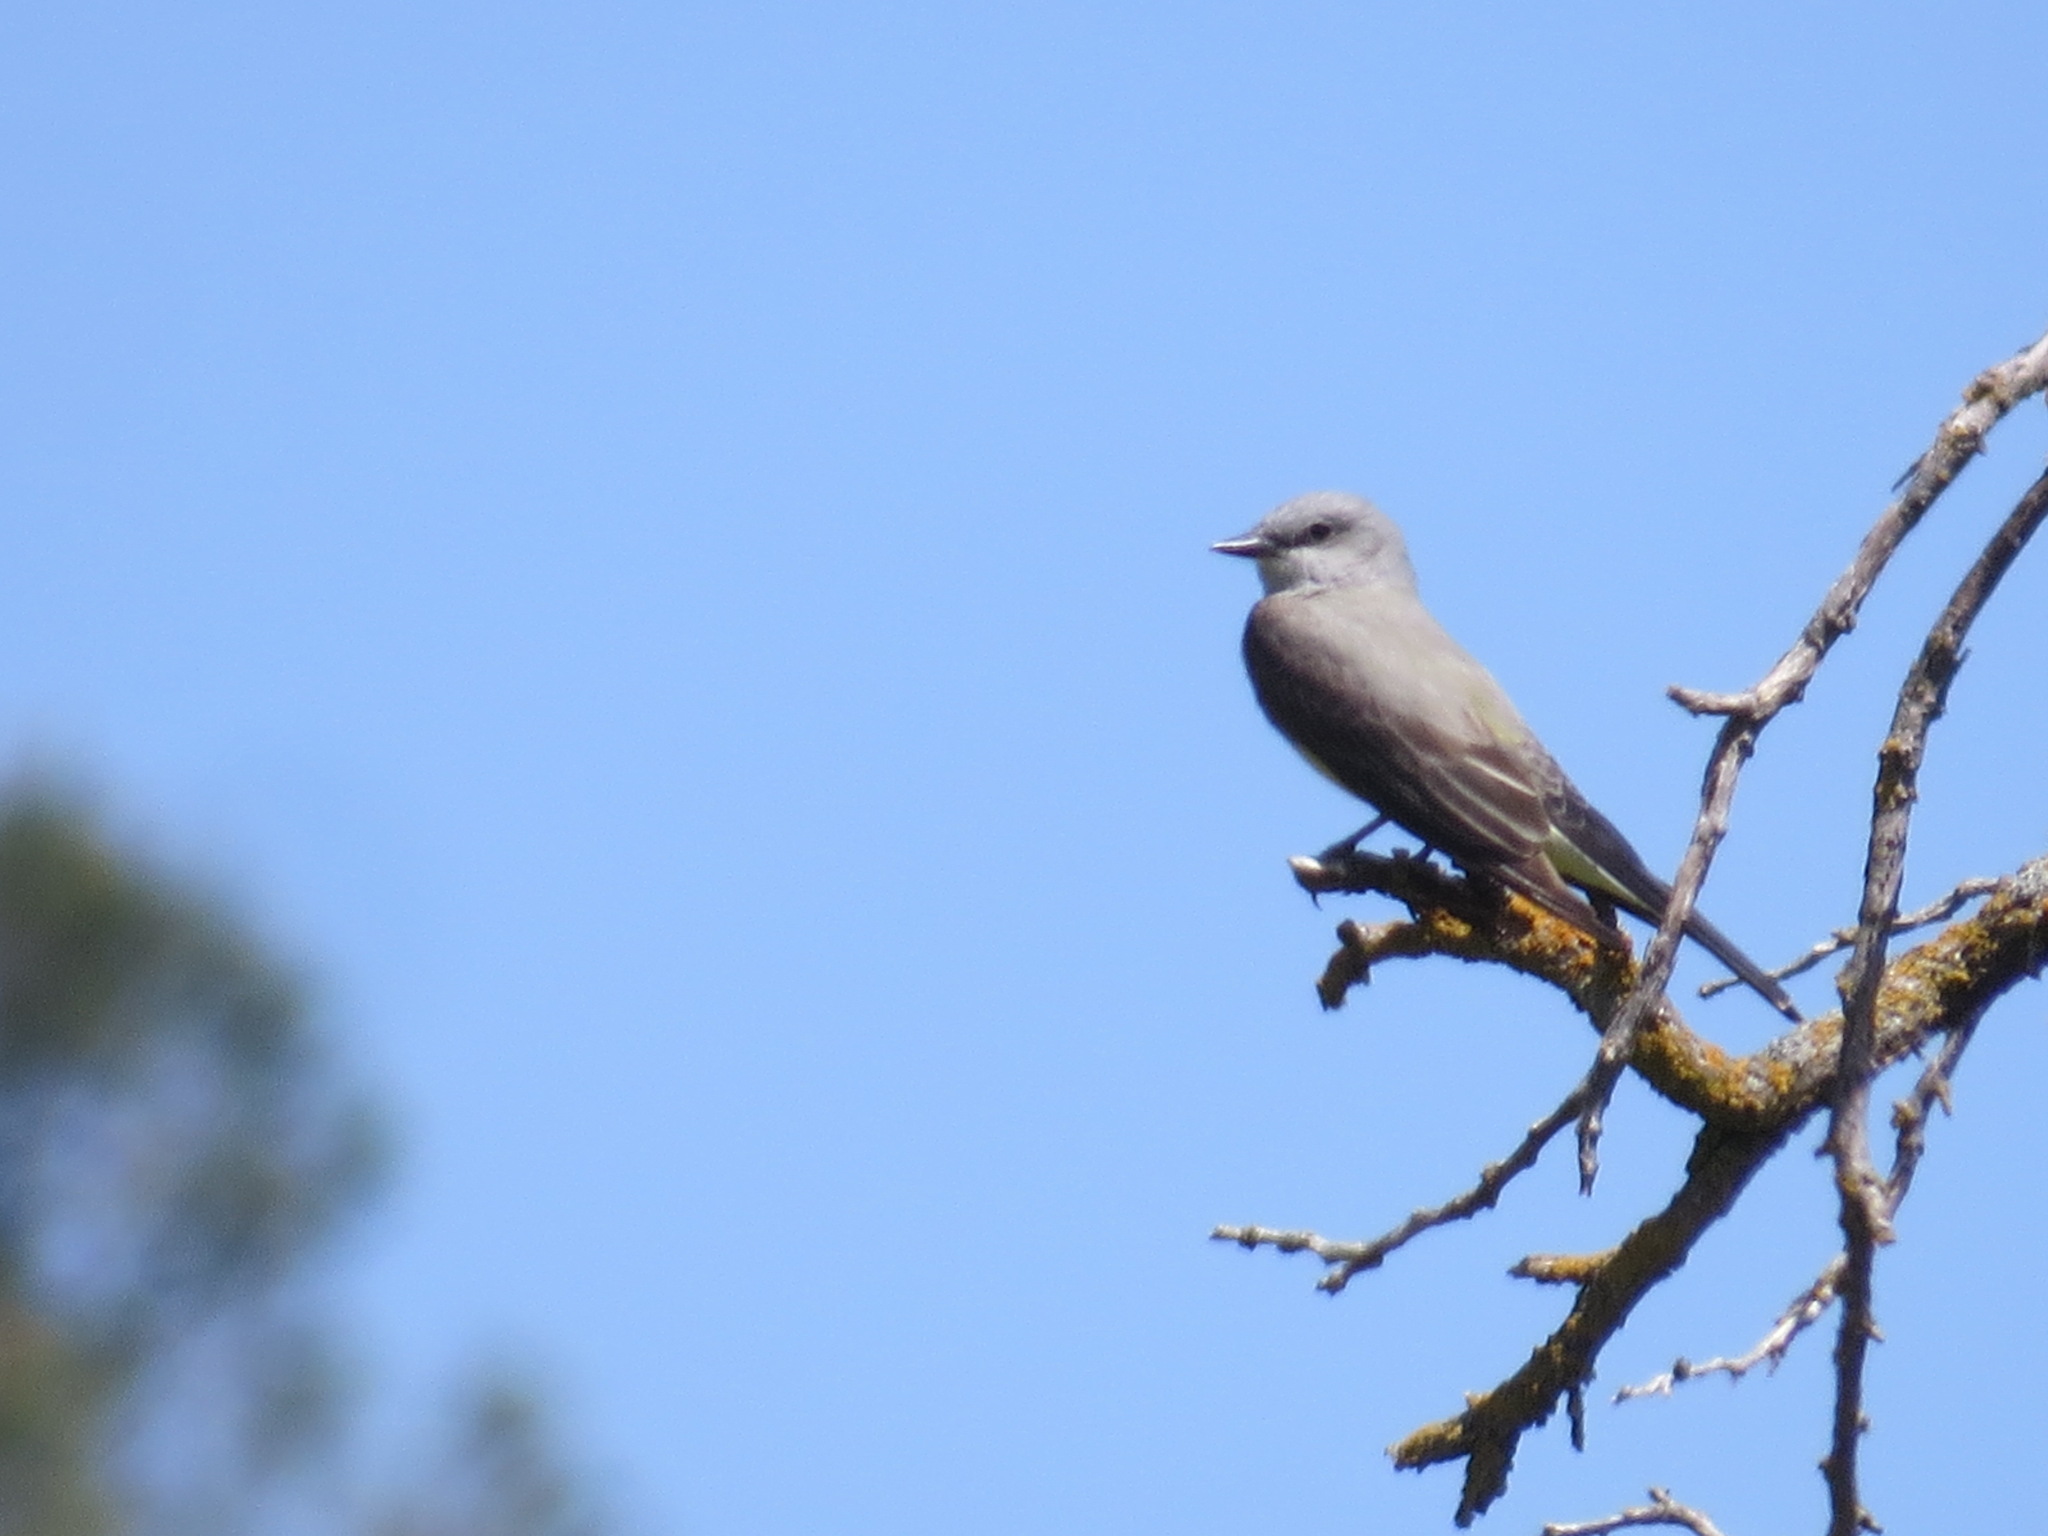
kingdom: Animalia
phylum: Chordata
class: Aves
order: Passeriformes
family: Tyrannidae
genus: Tyrannus
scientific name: Tyrannus verticalis
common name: Western kingbird
